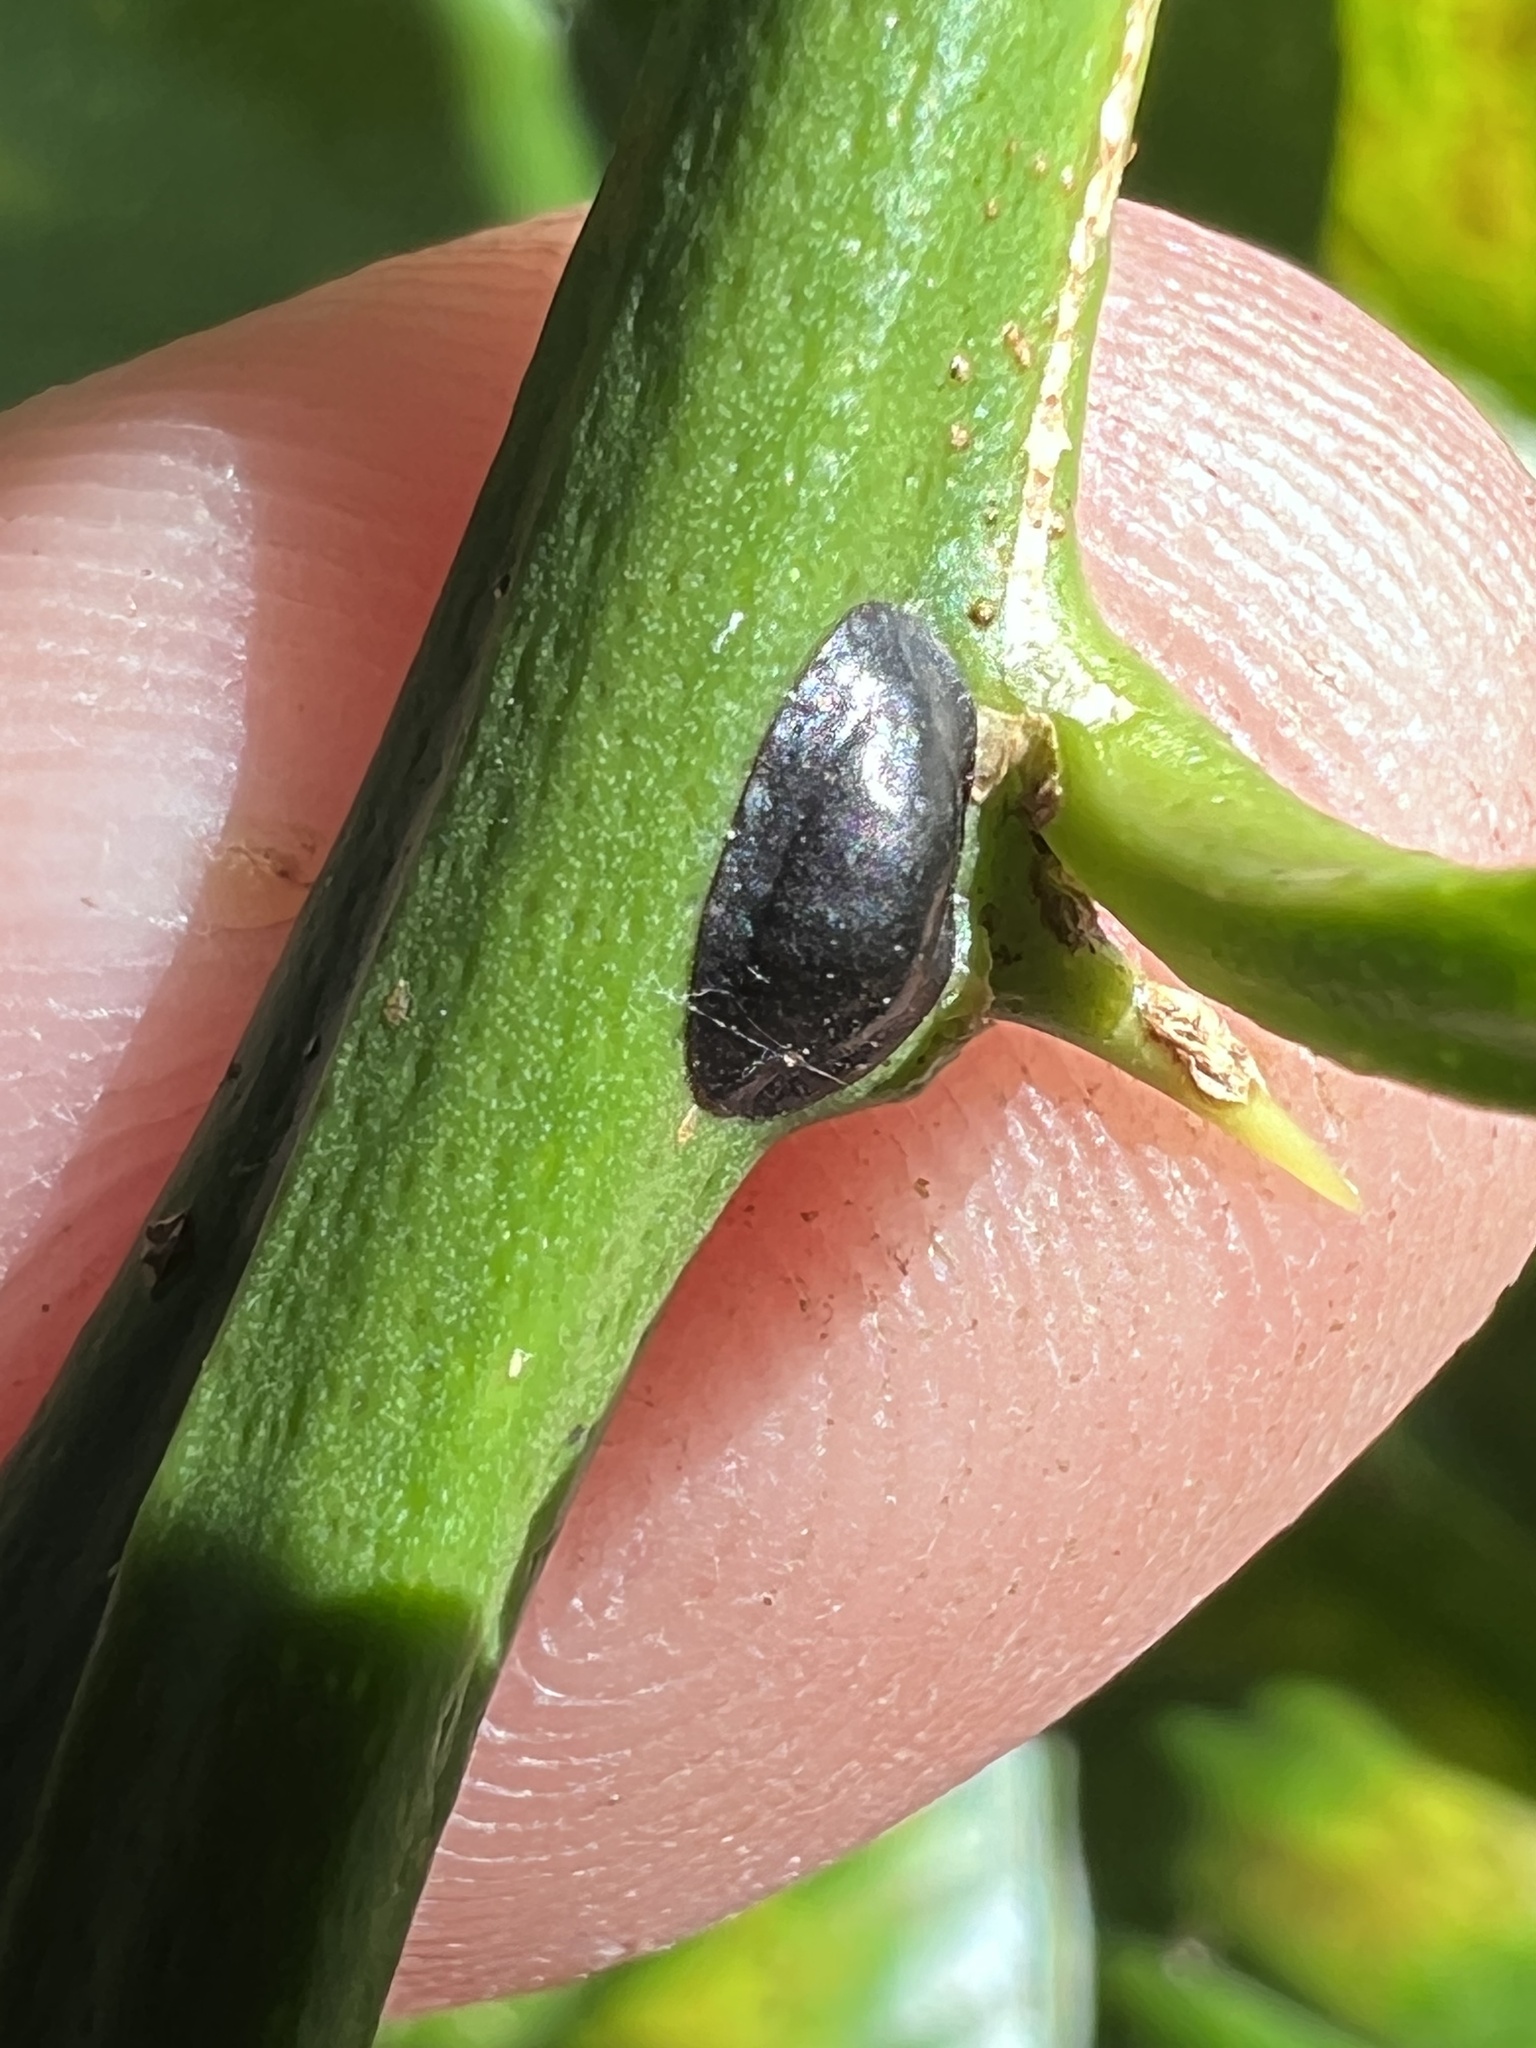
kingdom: Animalia
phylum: Arthropoda
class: Insecta
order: Hemiptera
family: Coccidae
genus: Parasaissetia
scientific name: Parasaissetia nigra
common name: Black scale
